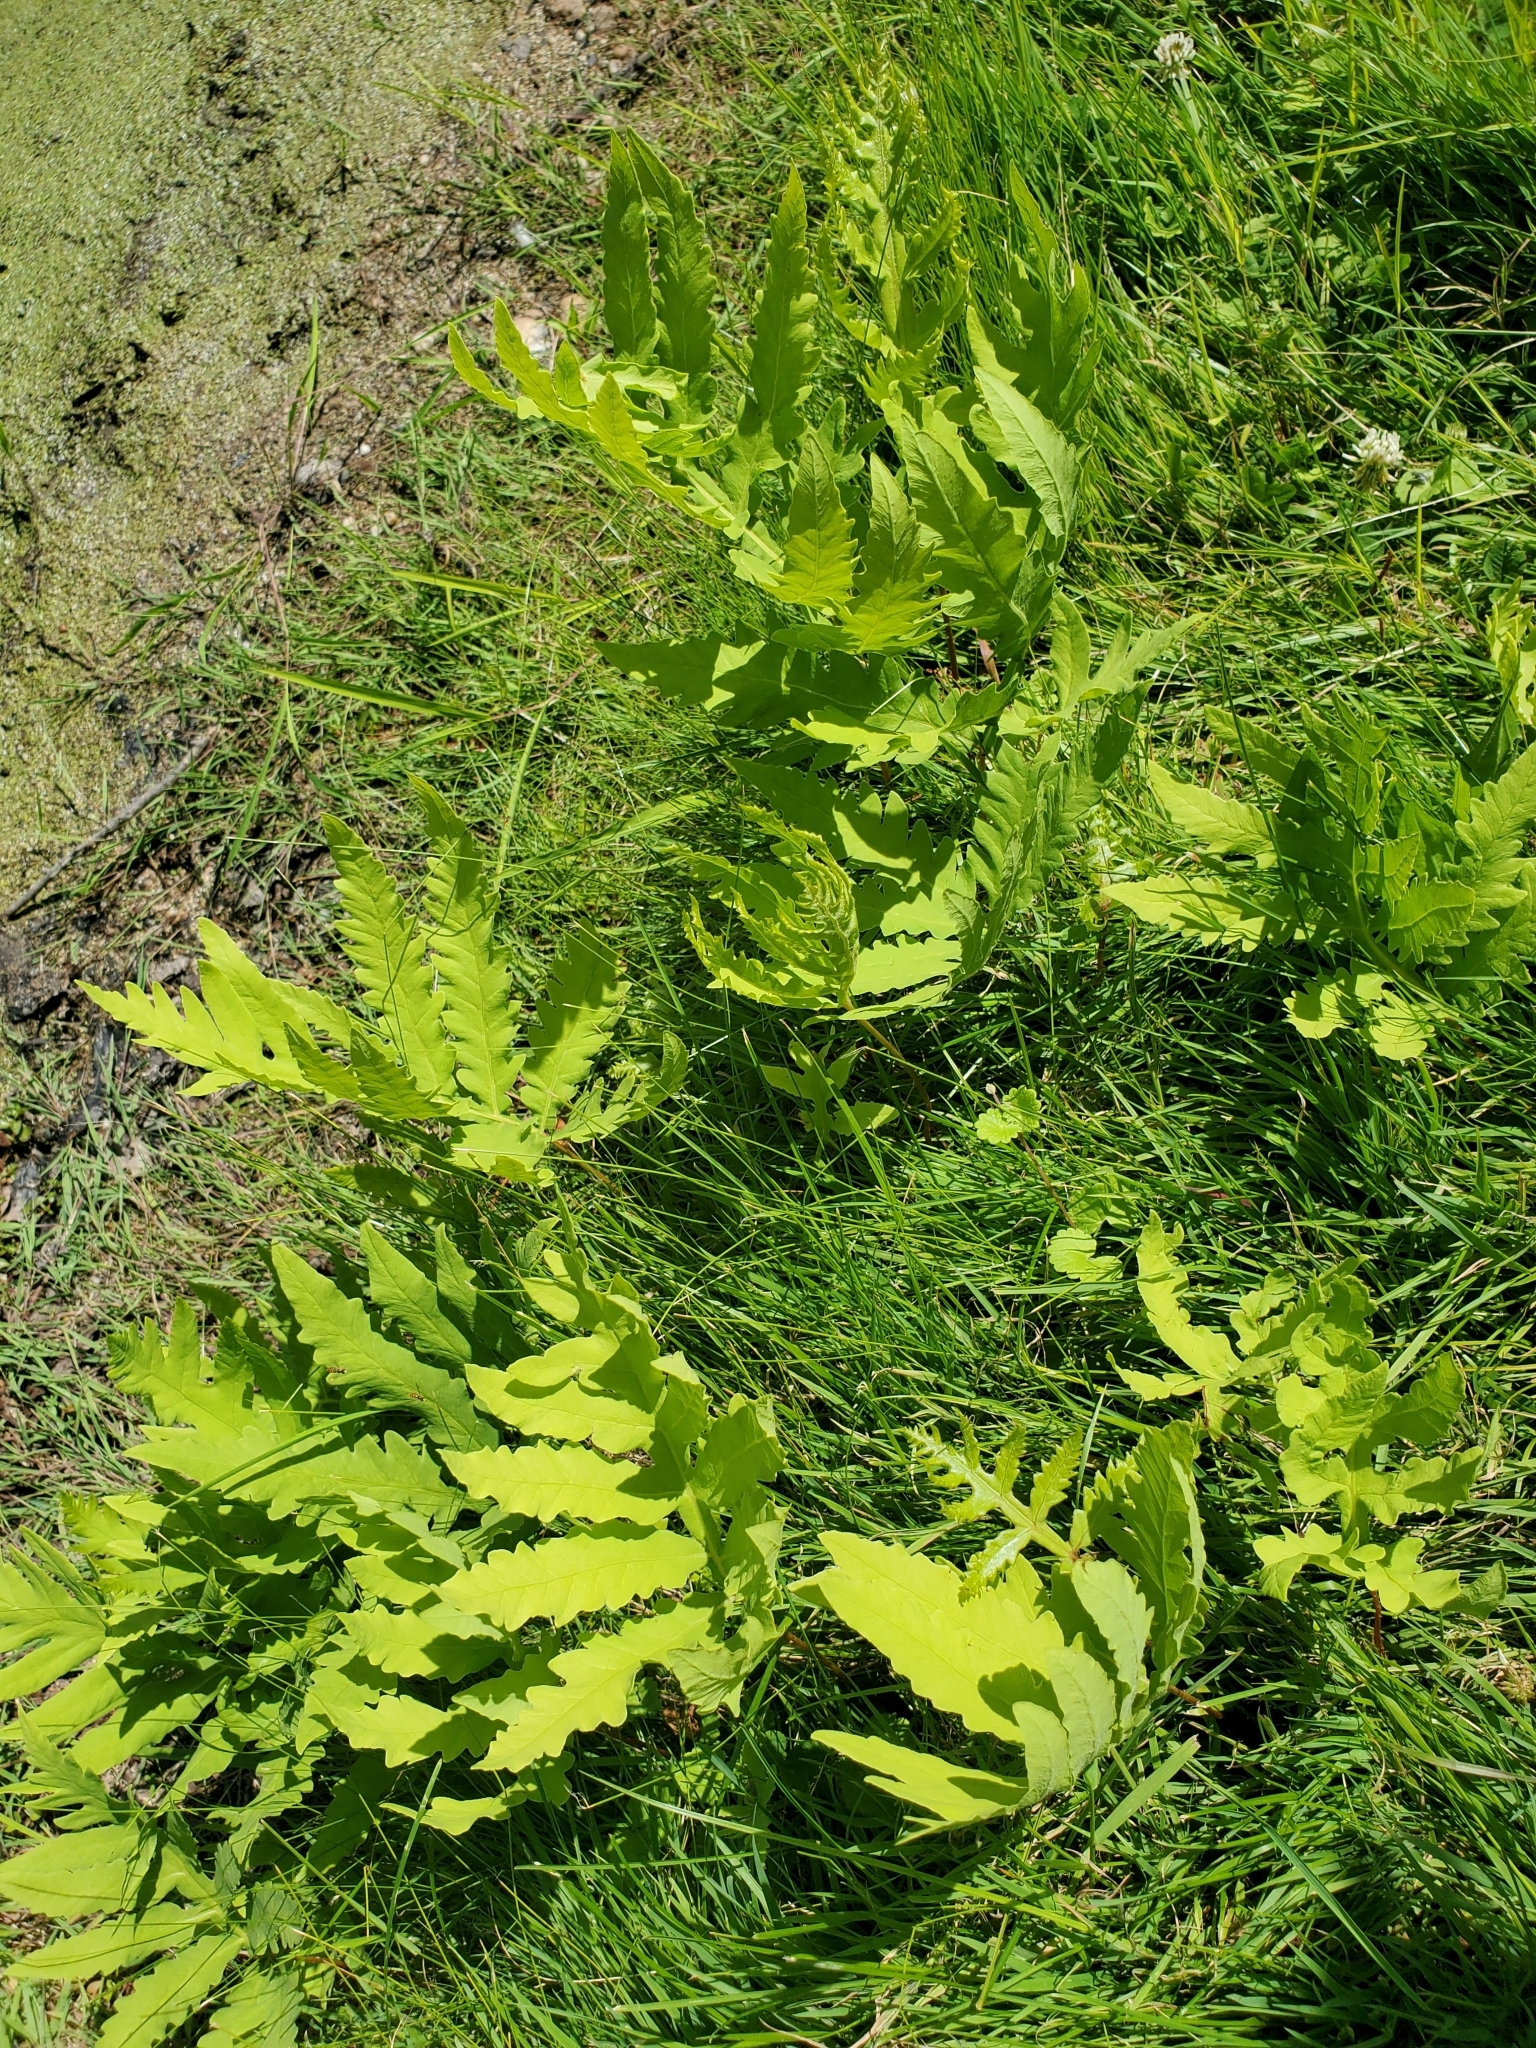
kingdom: Plantae
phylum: Tracheophyta
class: Polypodiopsida
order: Polypodiales
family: Onocleaceae
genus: Onoclea
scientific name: Onoclea sensibilis
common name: Sensitive fern
